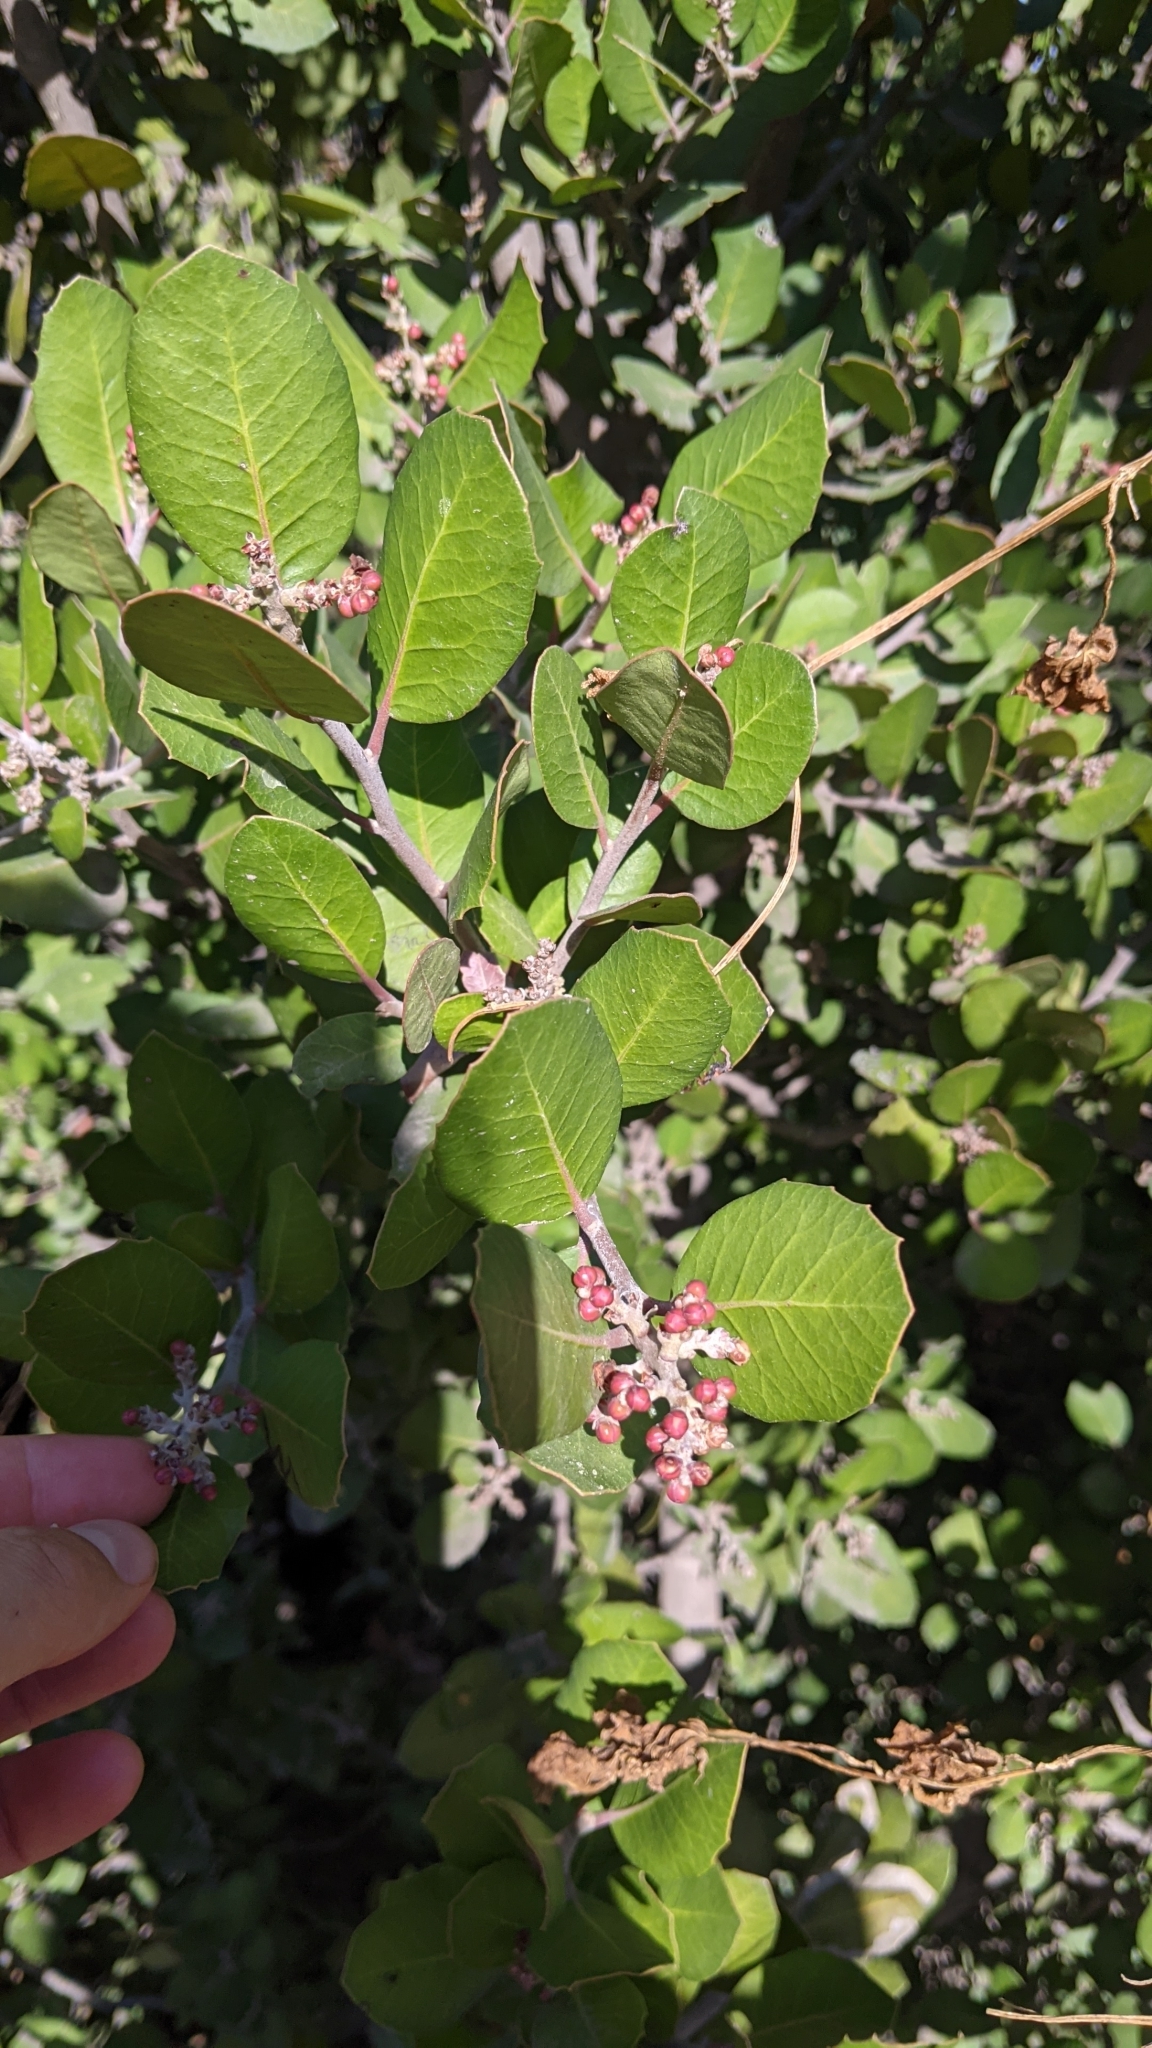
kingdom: Plantae
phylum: Tracheophyta
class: Magnoliopsida
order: Sapindales
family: Anacardiaceae
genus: Rhus
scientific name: Rhus integrifolia
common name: Lemonade sumac
